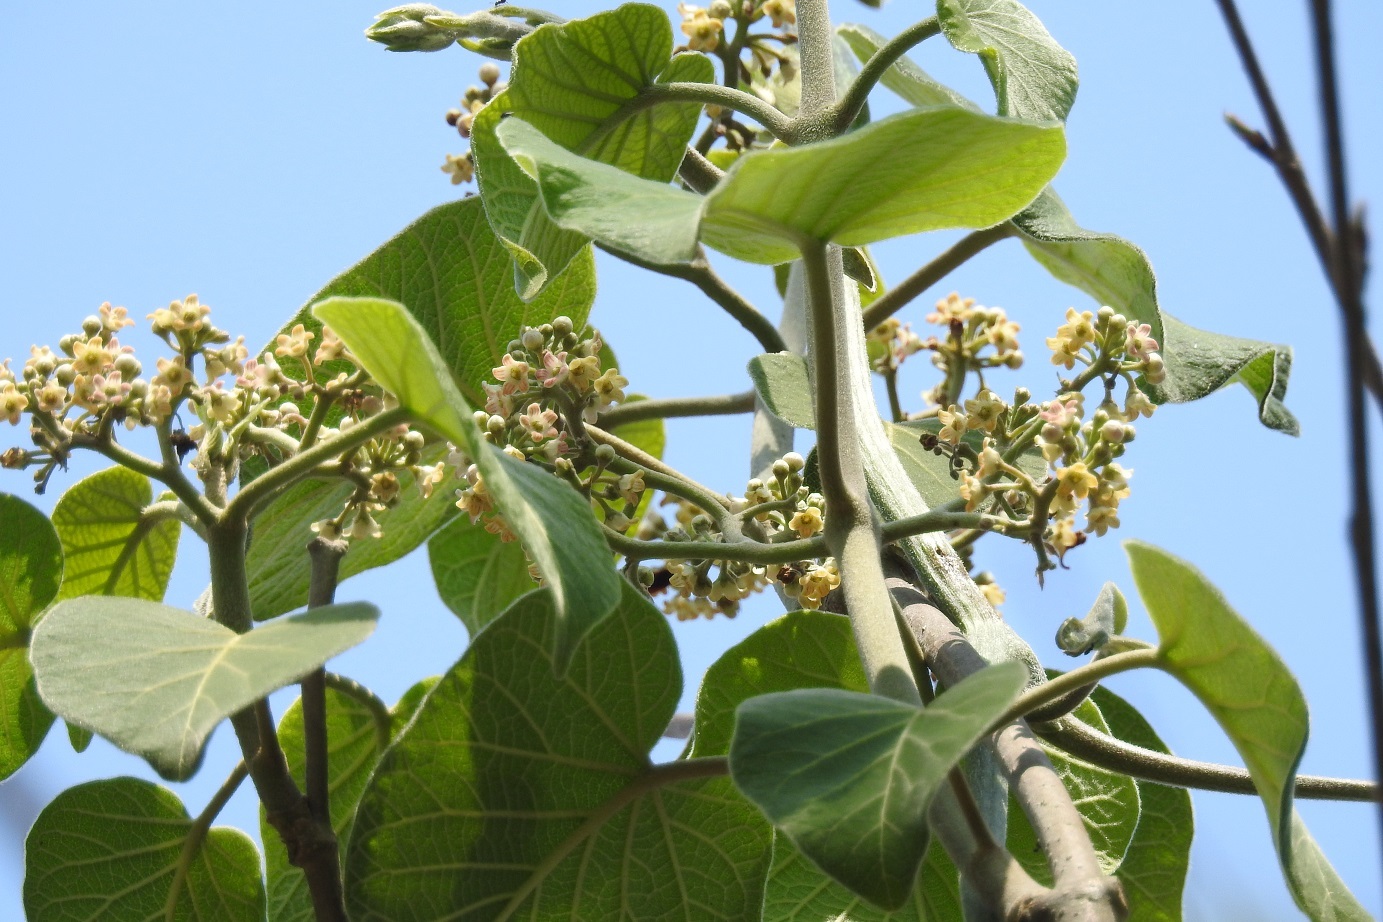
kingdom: Plantae
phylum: Tracheophyta
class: Magnoliopsida
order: Gentianales
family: Apocynaceae
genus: Ruehssia
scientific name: Ruehssia mexicana
